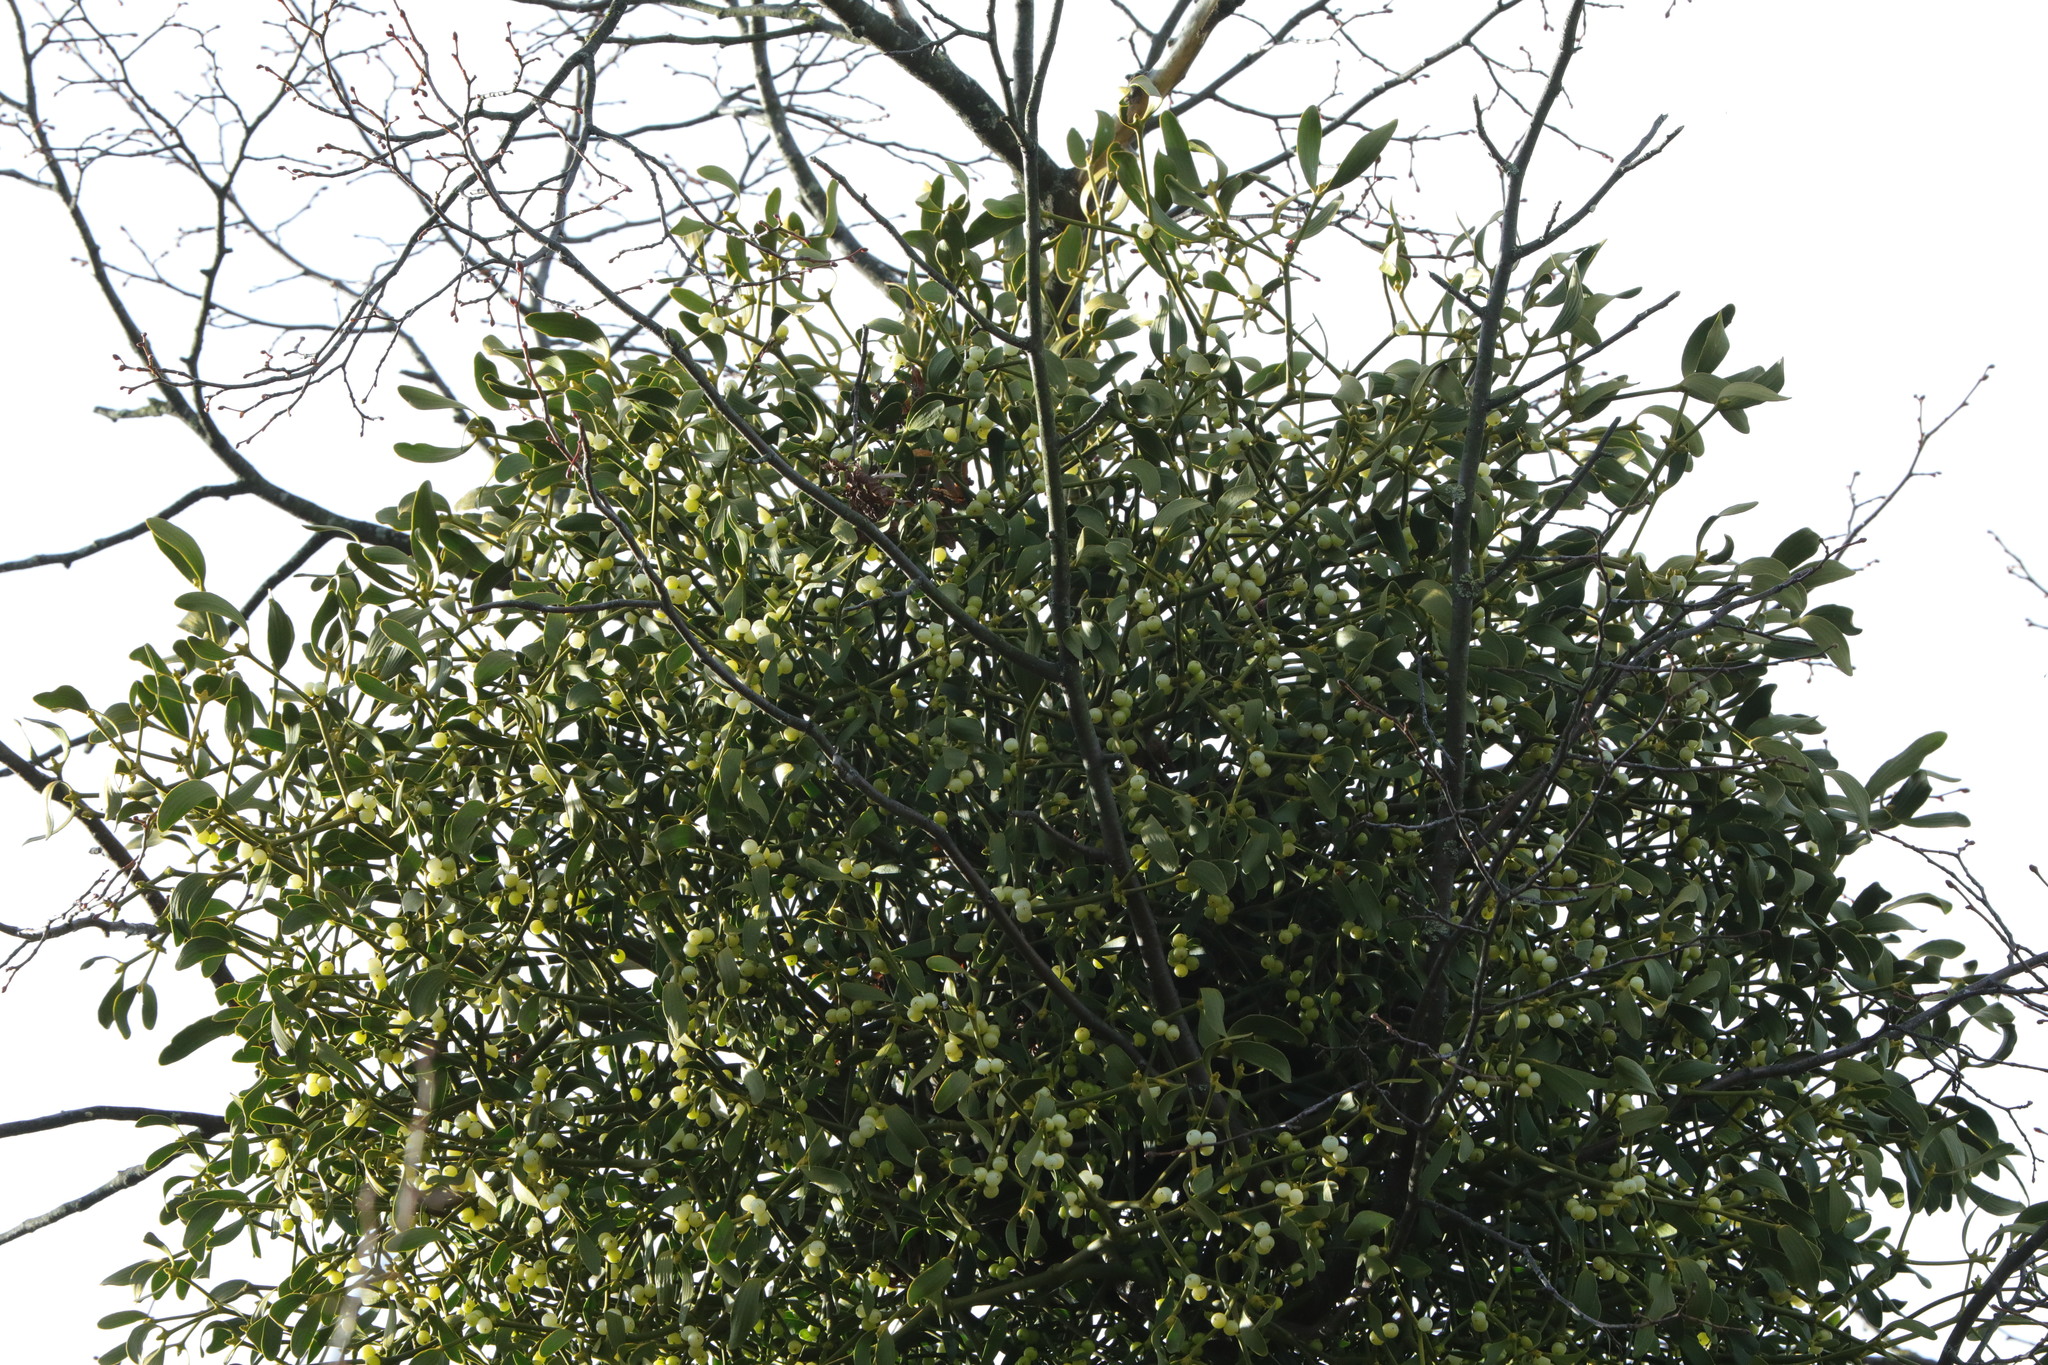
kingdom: Plantae
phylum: Tracheophyta
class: Magnoliopsida
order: Santalales
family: Viscaceae
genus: Viscum
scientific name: Viscum album
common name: Mistletoe
